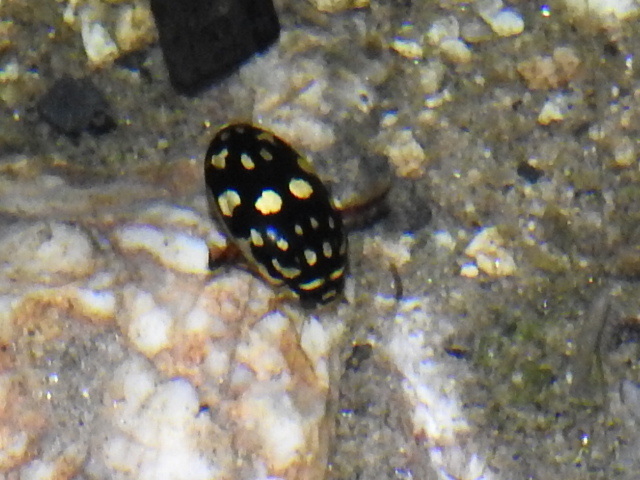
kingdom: Animalia
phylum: Arthropoda
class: Insecta
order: Coleoptera
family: Dytiscidae
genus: Thermonectus
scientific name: Thermonectus marmoratus
